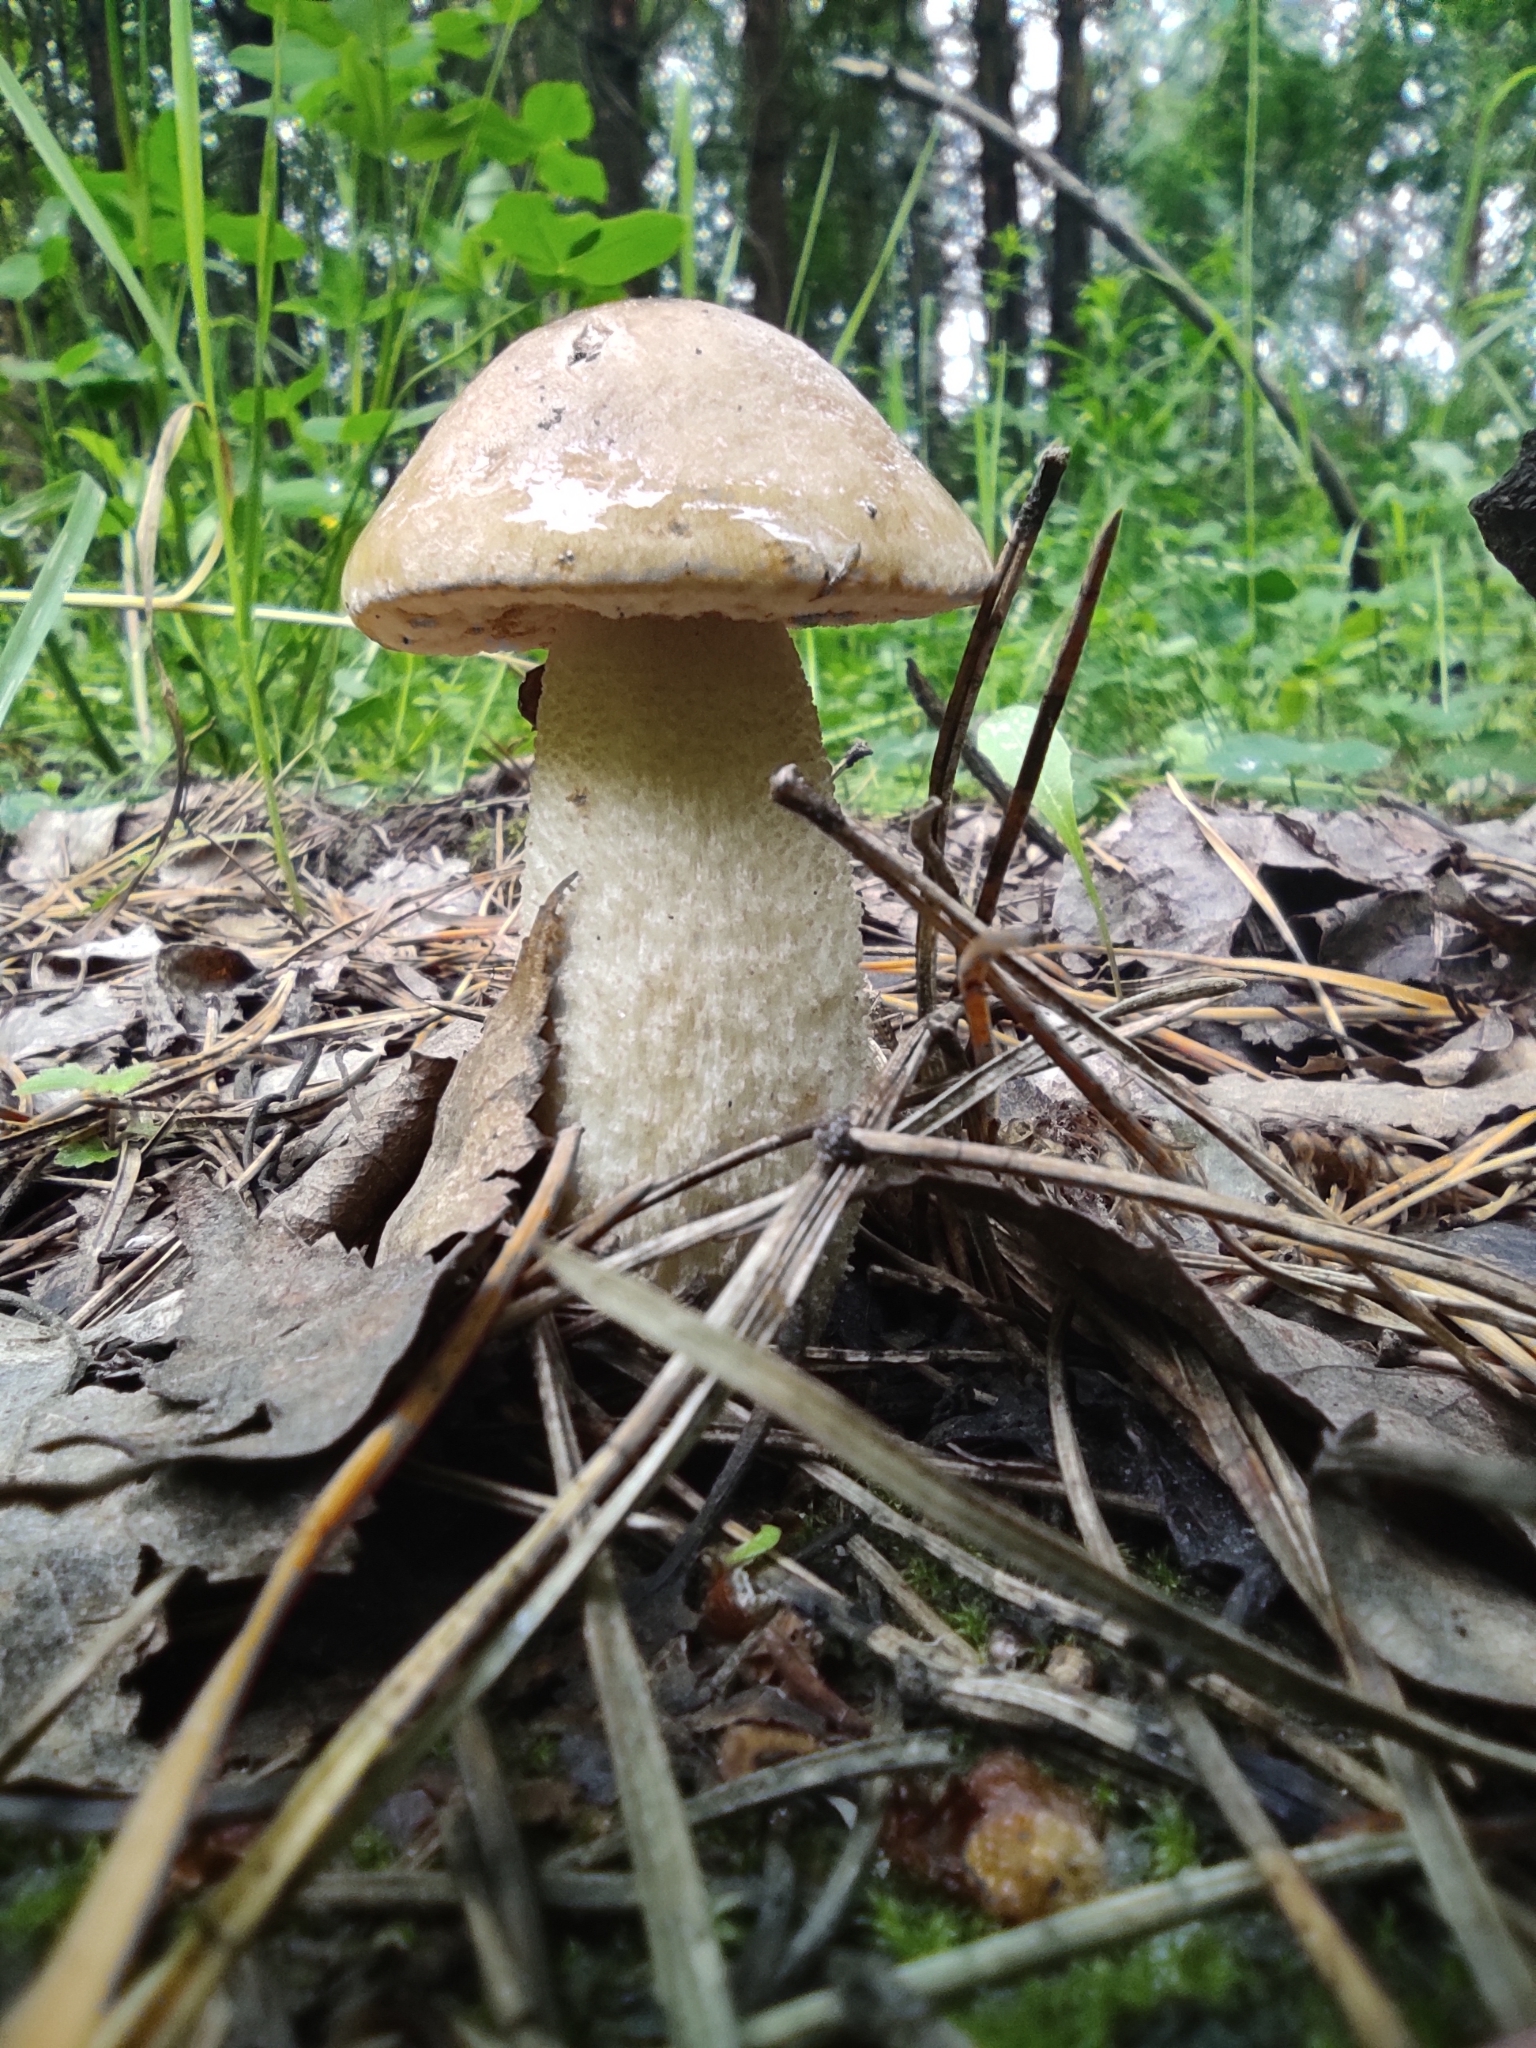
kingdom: Fungi
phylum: Basidiomycota
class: Agaricomycetes
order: Boletales
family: Boletaceae
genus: Leccinum
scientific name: Leccinum scabrum
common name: Blushing bolete
